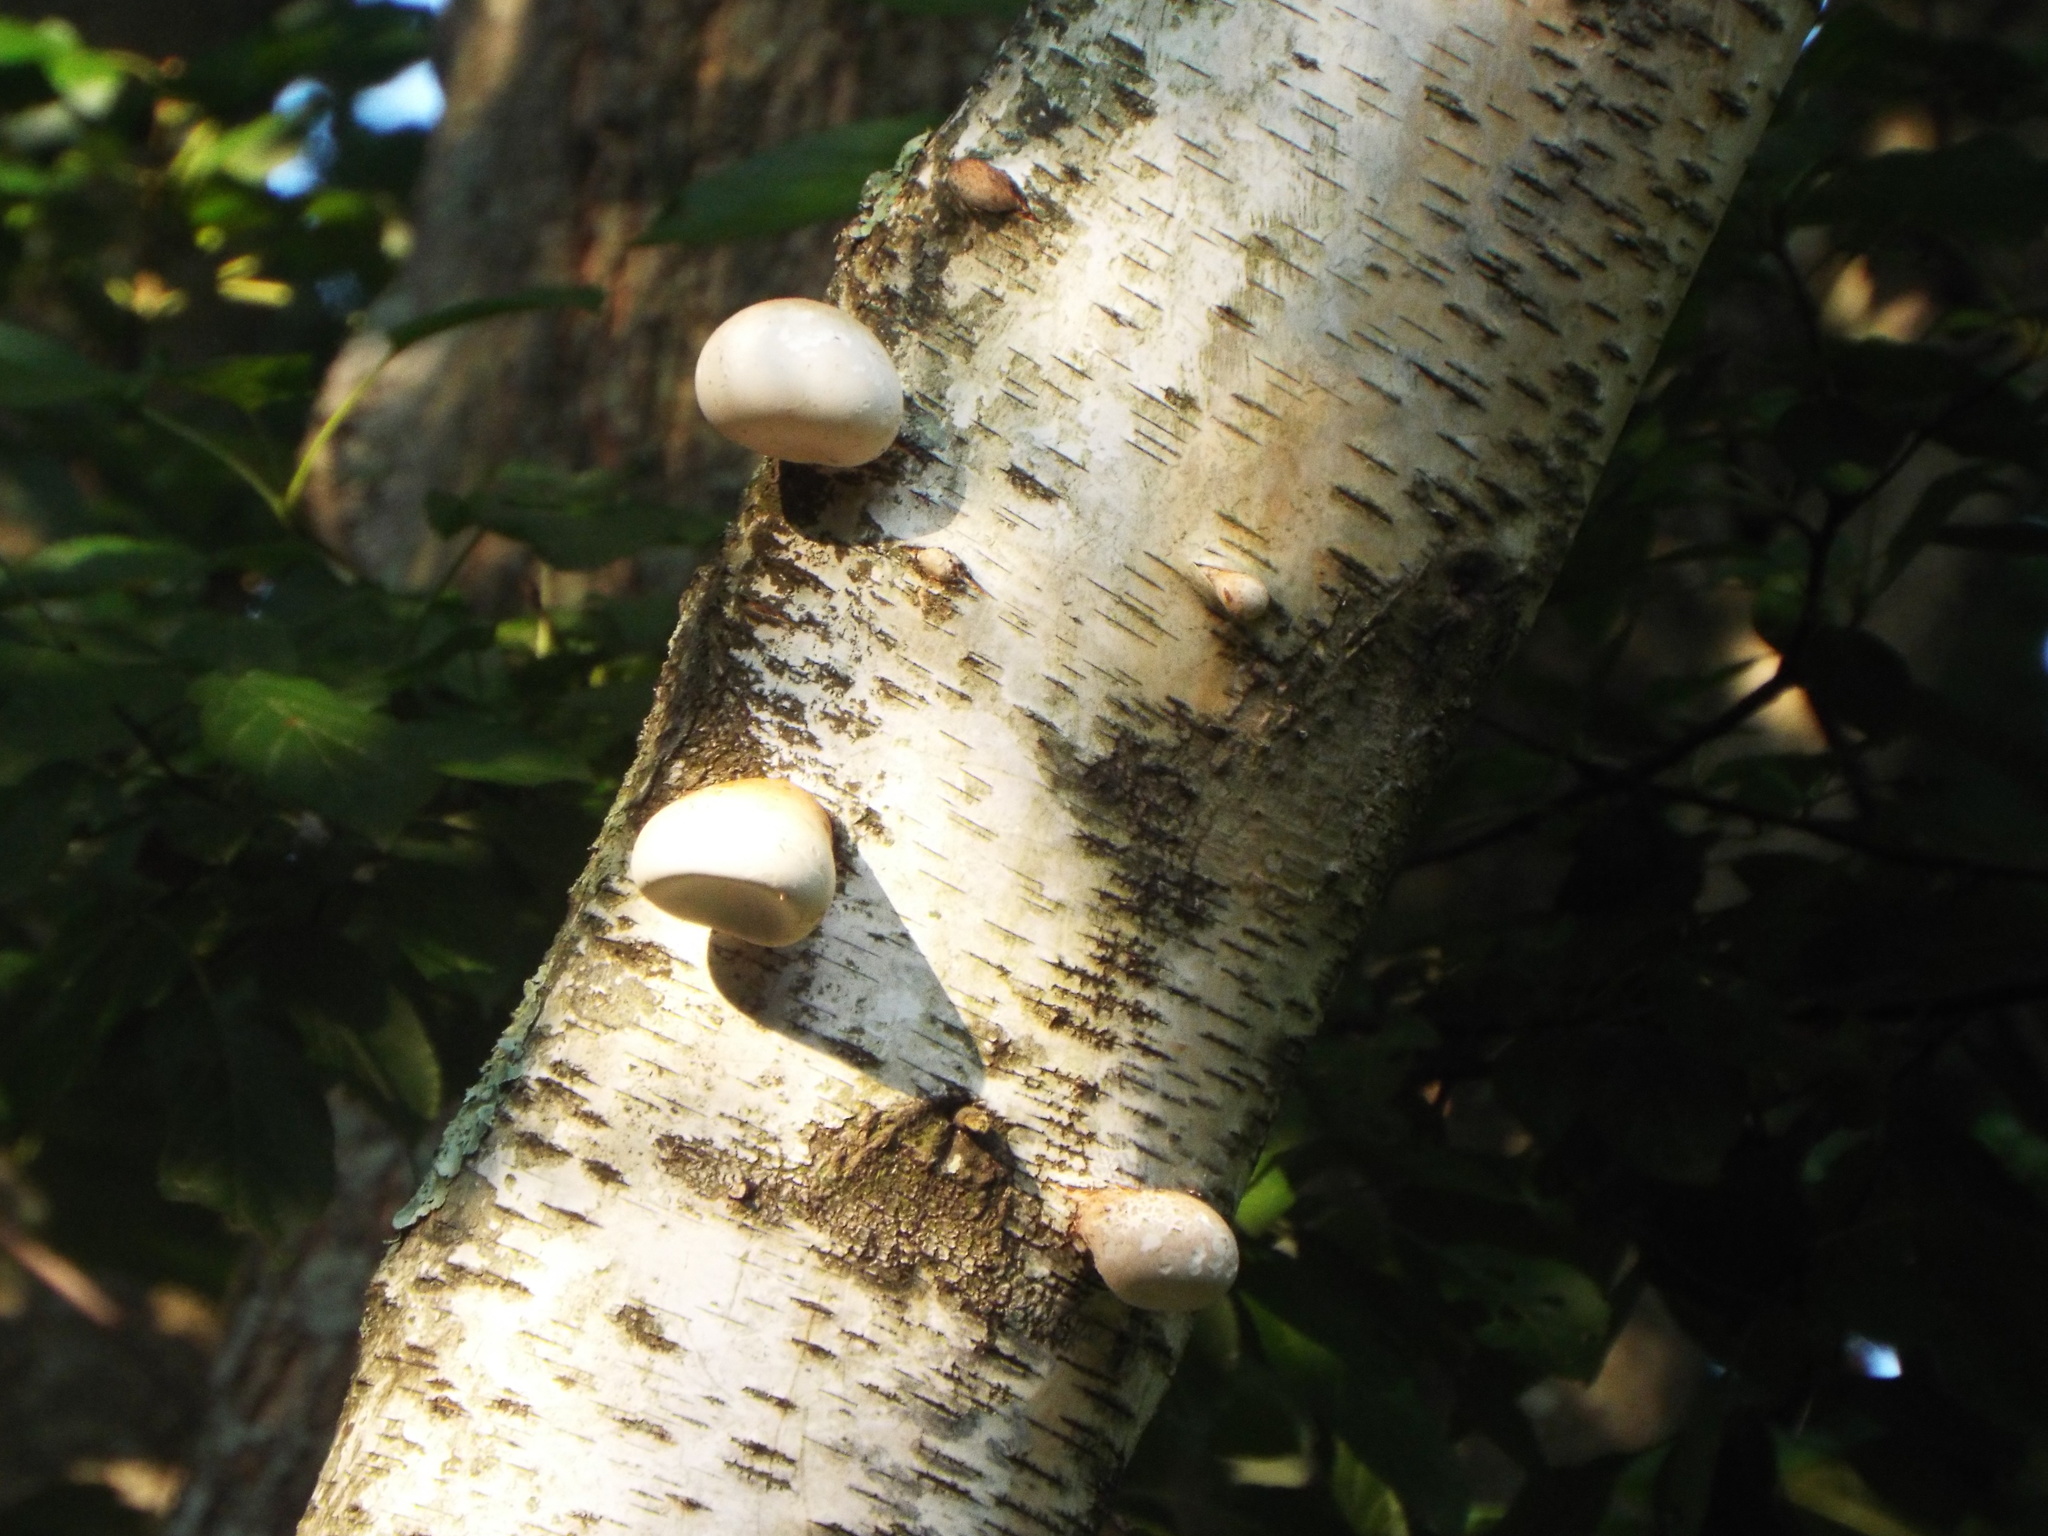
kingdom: Fungi
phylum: Basidiomycota
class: Agaricomycetes
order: Polyporales
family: Fomitopsidaceae
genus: Fomitopsis
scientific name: Fomitopsis betulina
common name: Birch polypore
